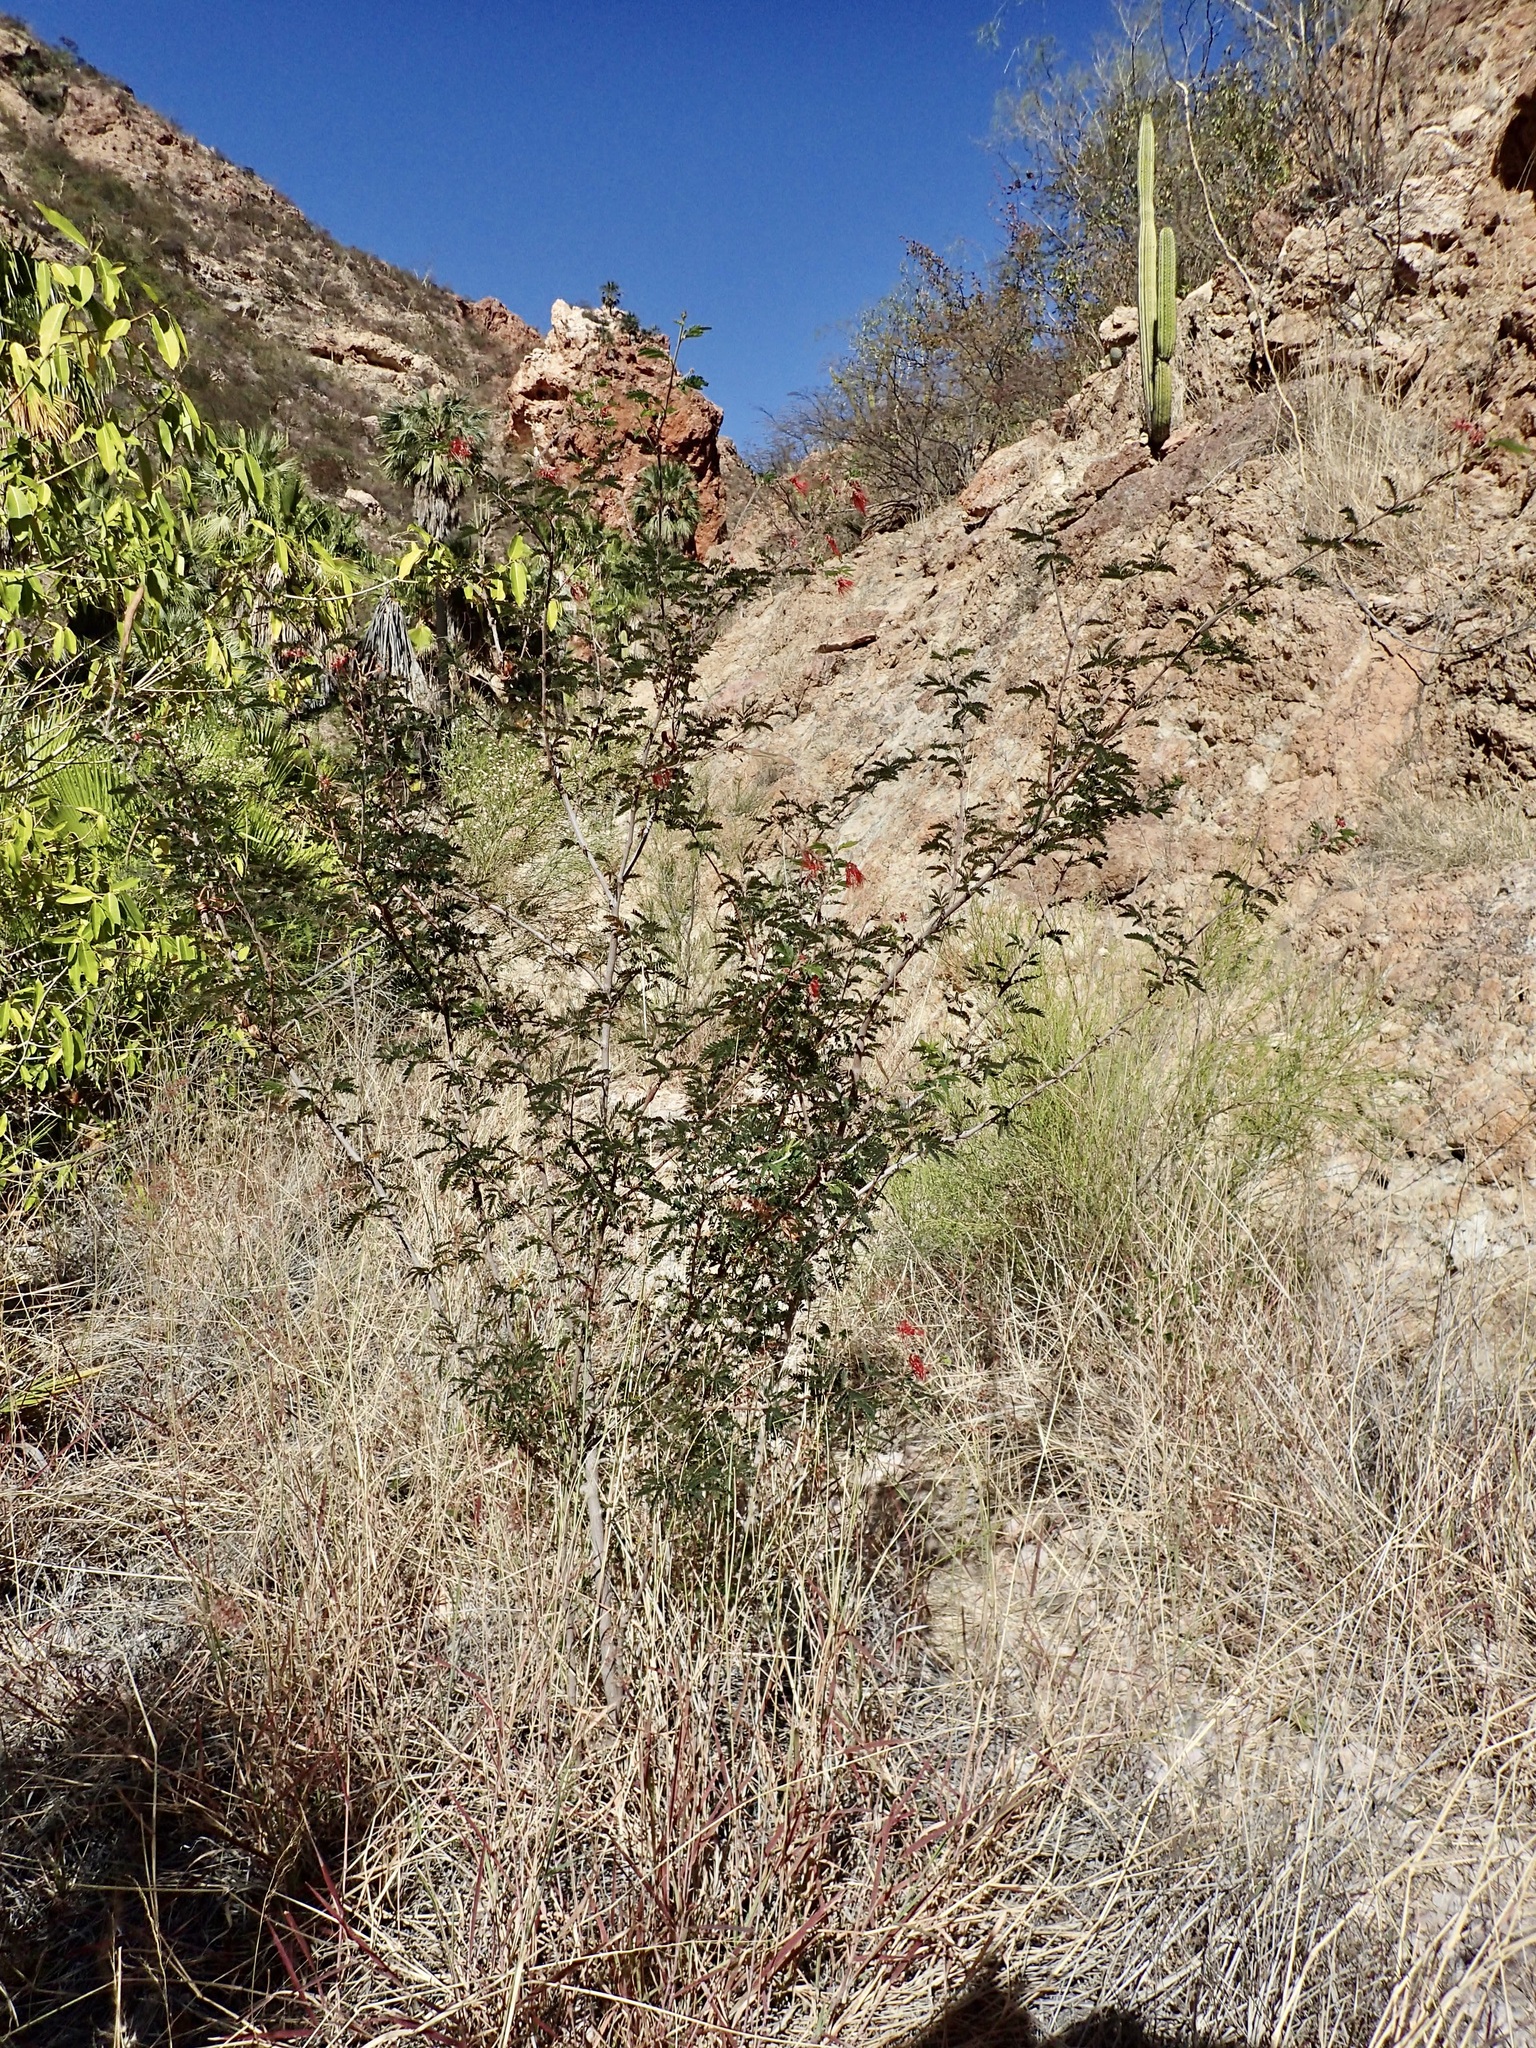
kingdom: Plantae
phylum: Tracheophyta
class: Magnoliopsida
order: Fabales
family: Fabaceae
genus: Calliandra
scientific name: Calliandra californica
